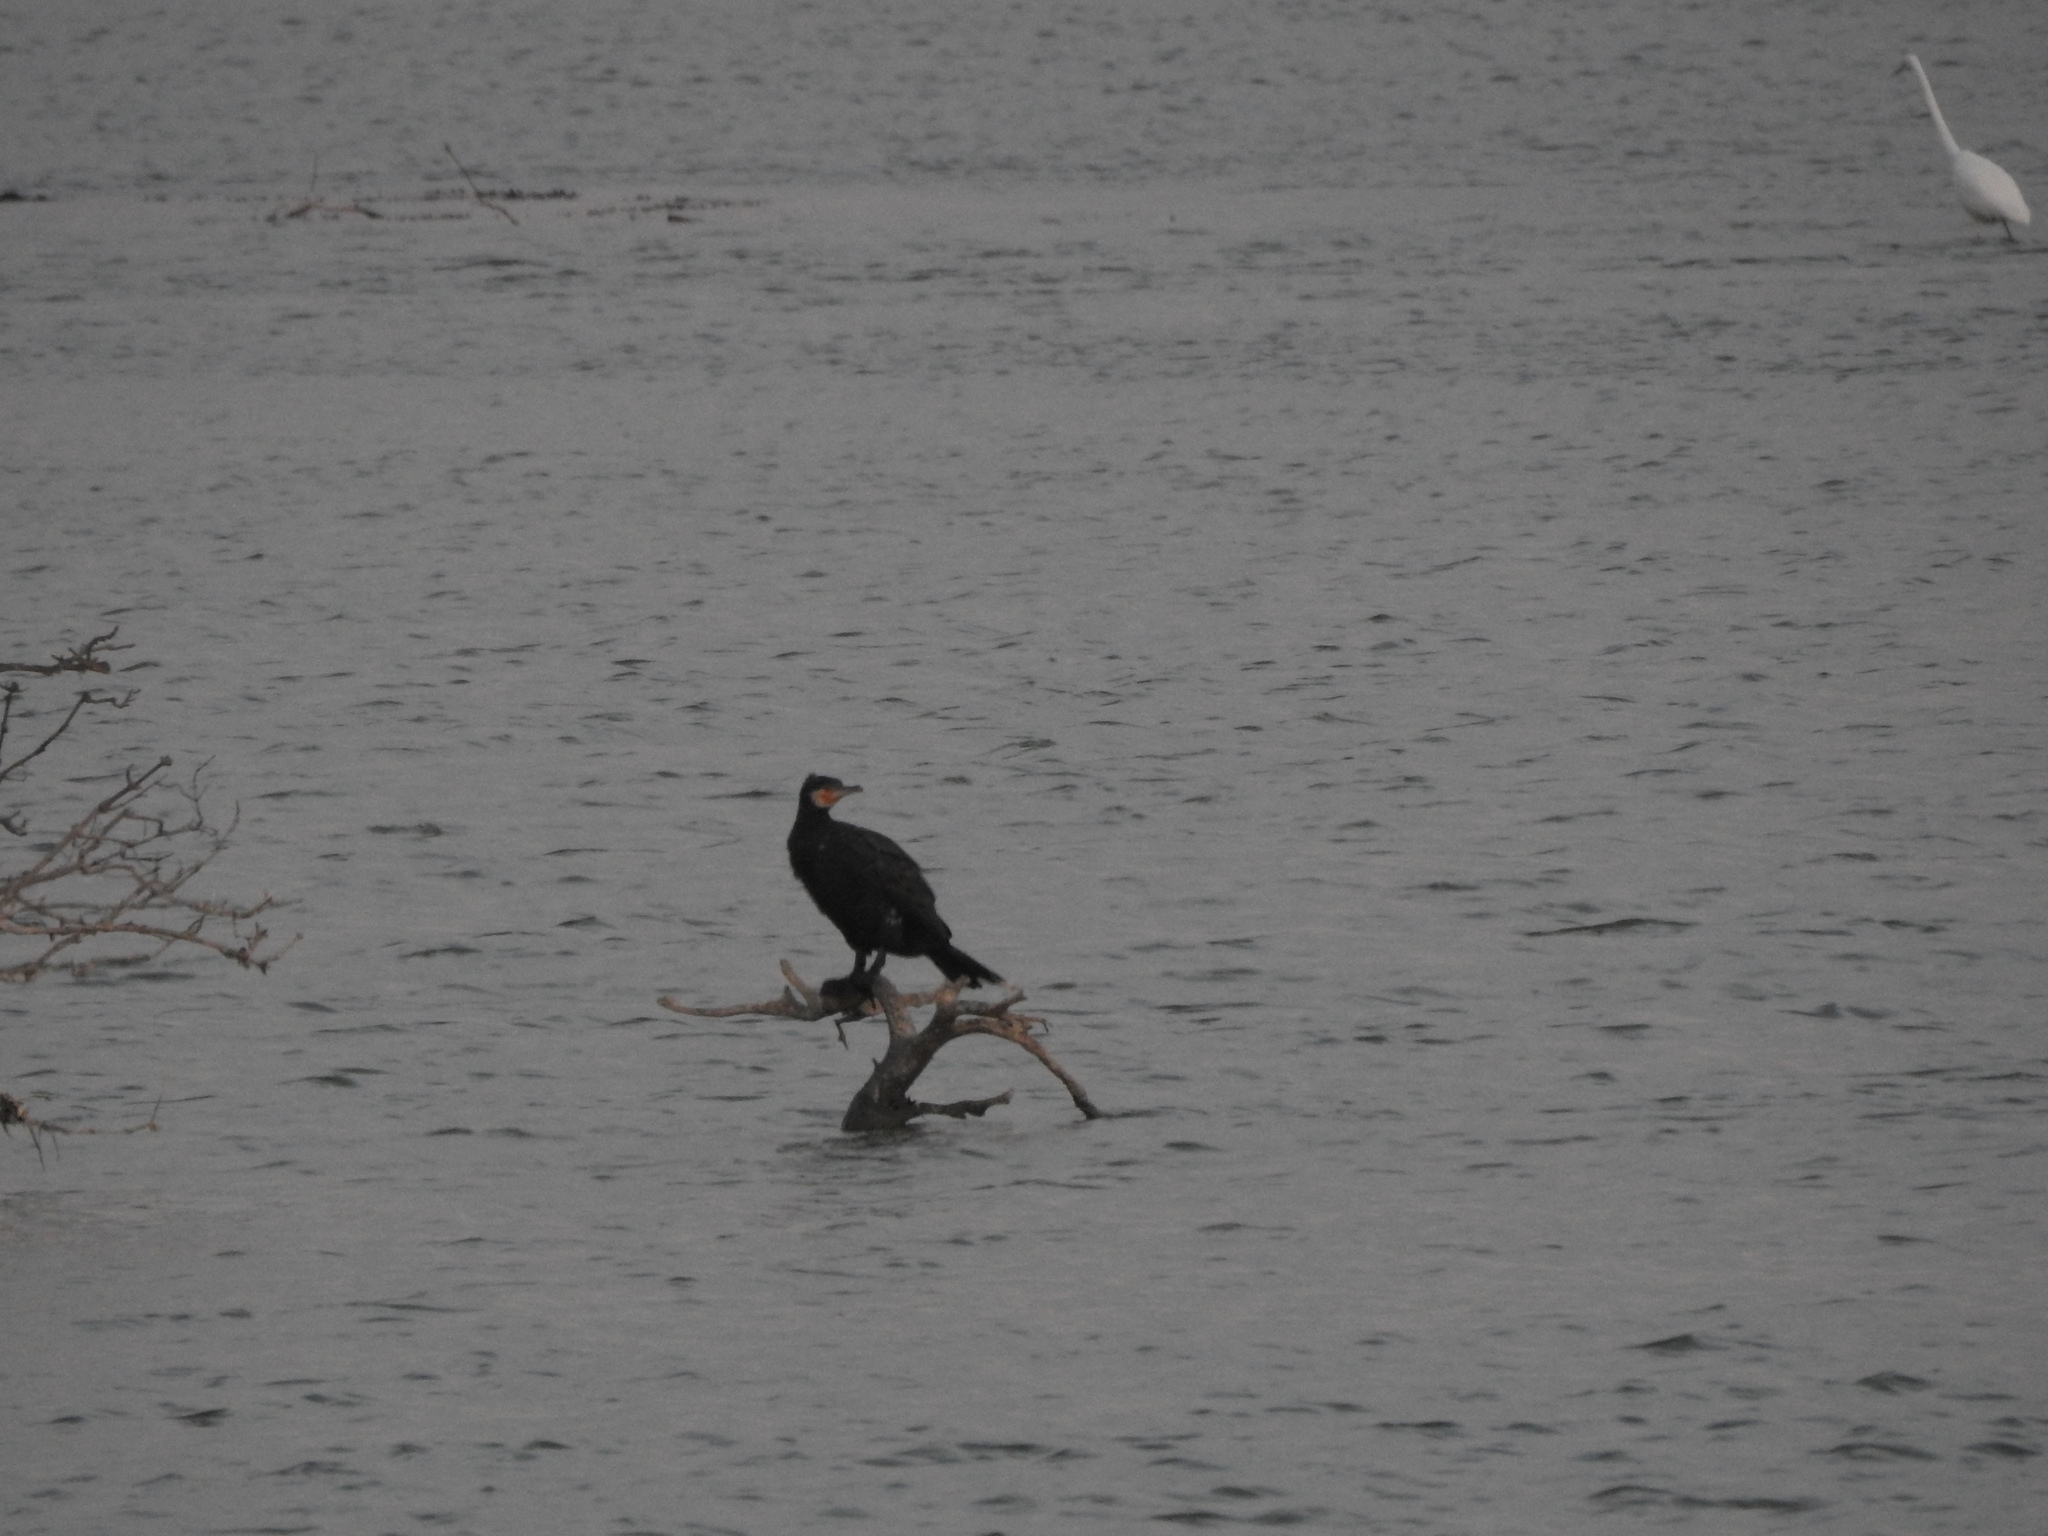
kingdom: Animalia
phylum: Chordata
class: Aves
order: Suliformes
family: Phalacrocoracidae
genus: Phalacrocorax
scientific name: Phalacrocorax carbo
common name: Great cormorant
